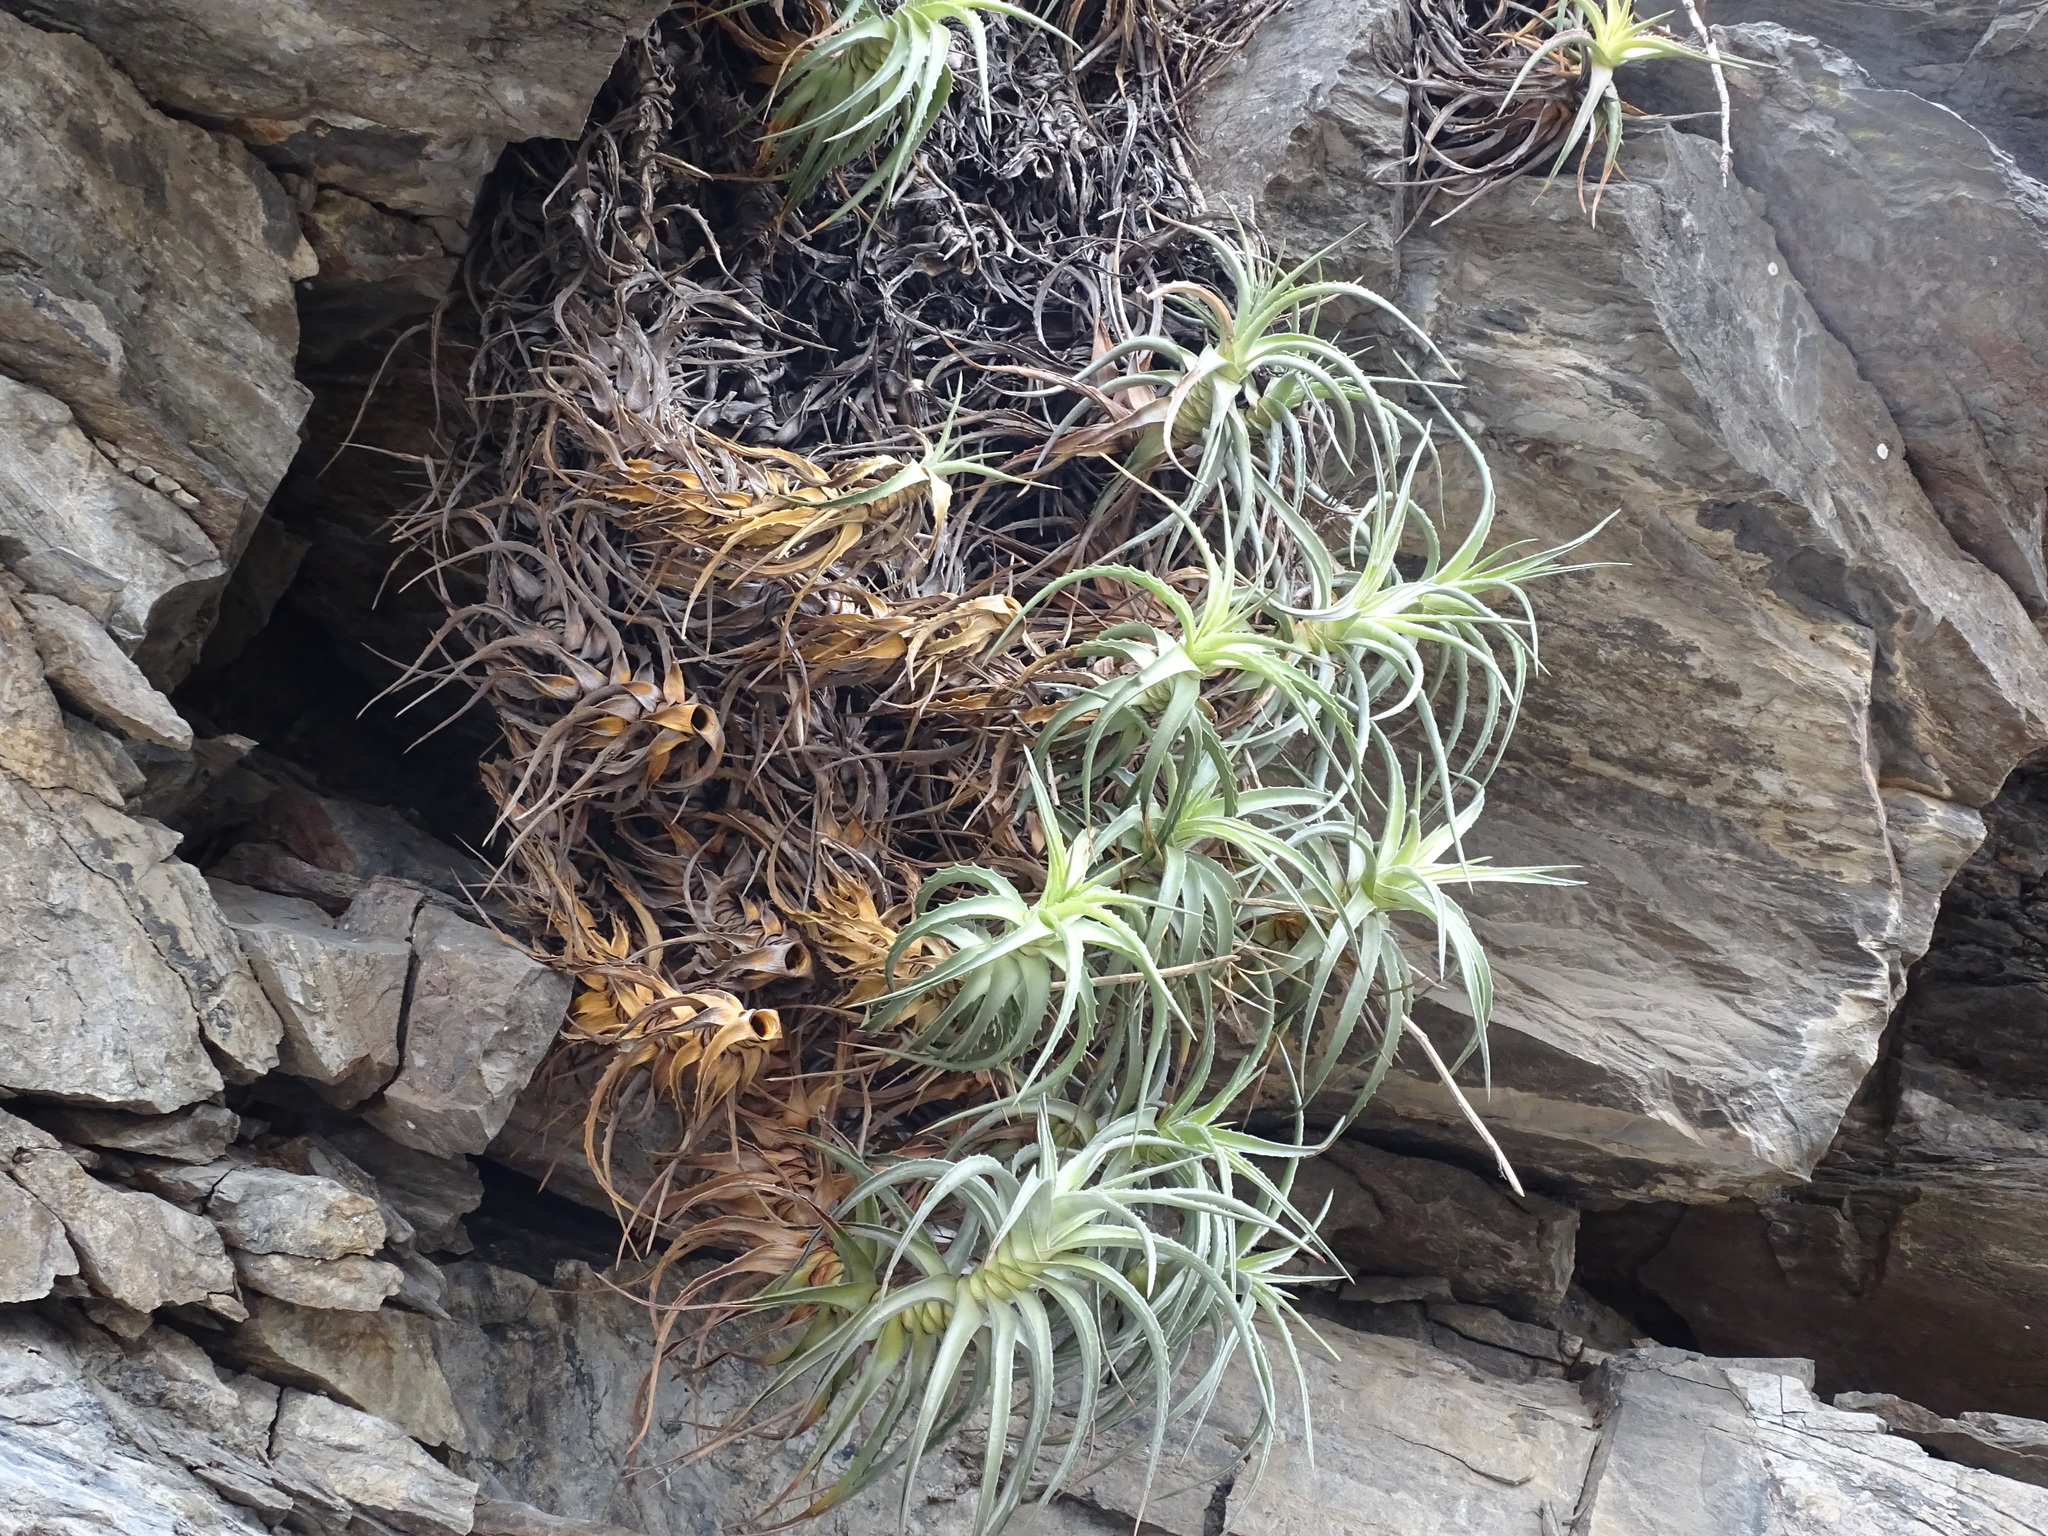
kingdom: Plantae
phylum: Tracheophyta
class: Liliopsida
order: Poales
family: Bromeliaceae
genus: Hechtia
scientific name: Hechtia isthmusiana
